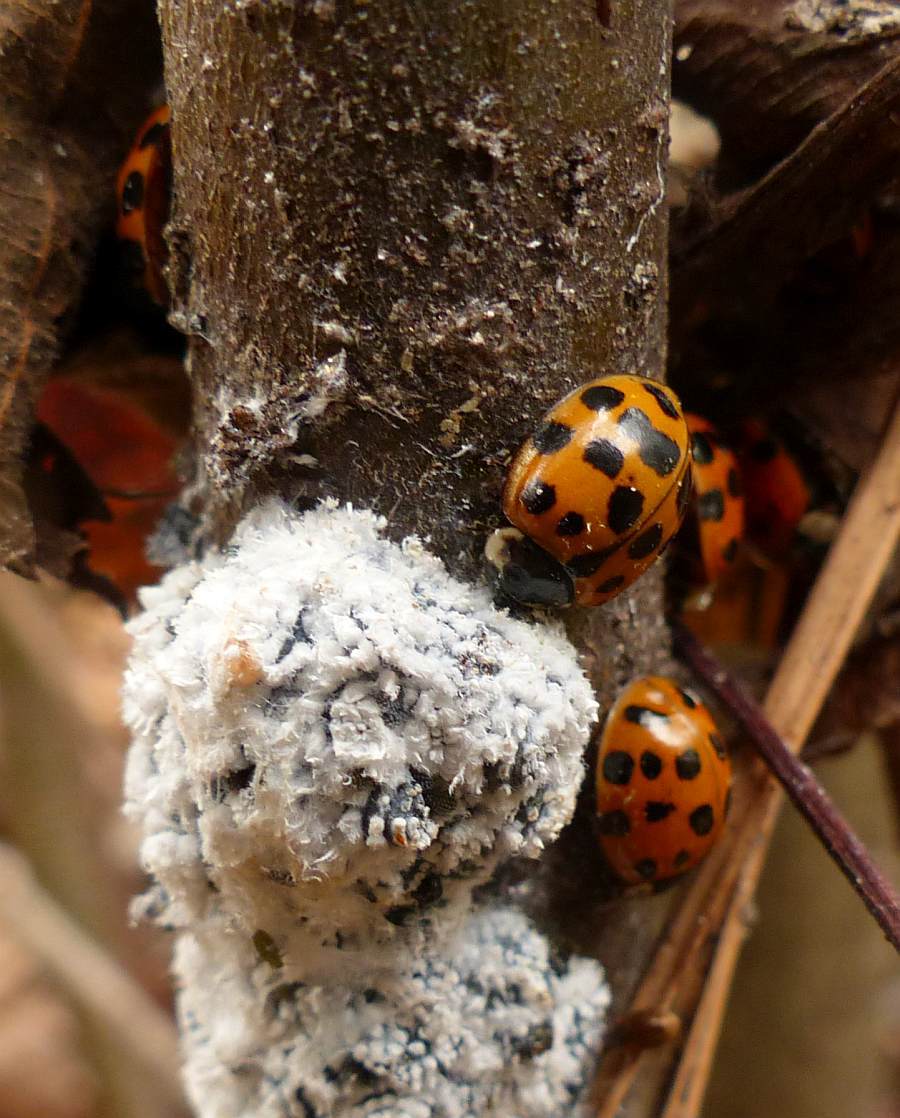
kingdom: Animalia
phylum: Arthropoda
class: Insecta
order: Coleoptera
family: Coccinellidae
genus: Harmonia
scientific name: Harmonia axyridis
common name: Harlequin ladybird
